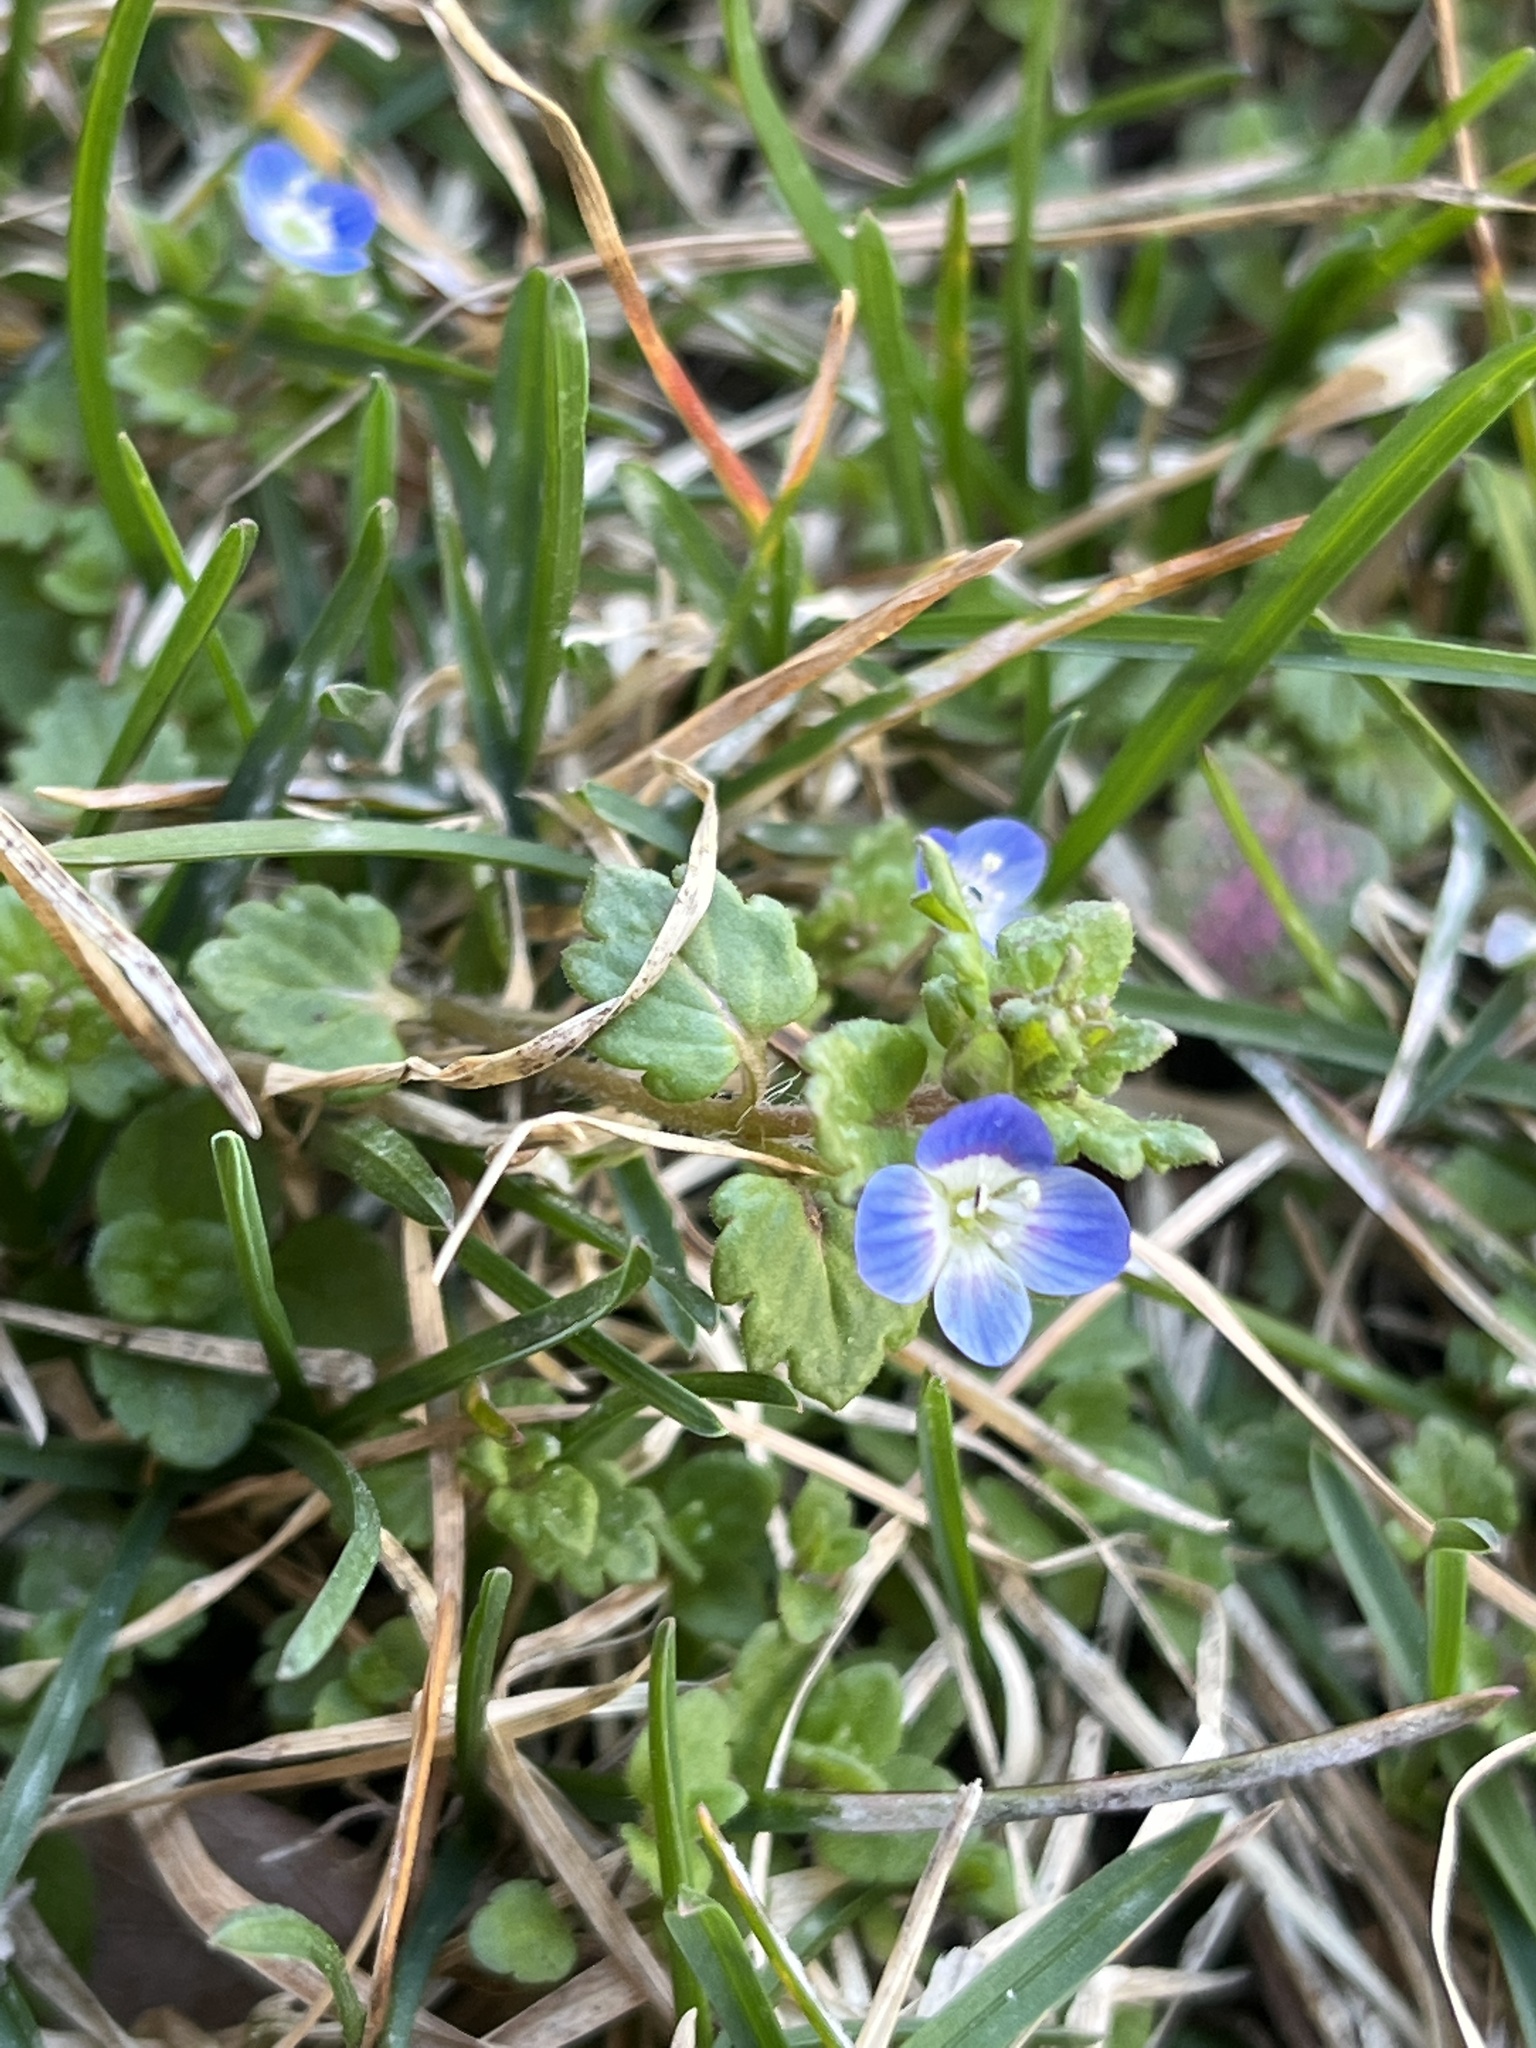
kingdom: Plantae
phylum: Tracheophyta
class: Magnoliopsida
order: Lamiales
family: Plantaginaceae
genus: Veronica
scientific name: Veronica polita
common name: Grey field-speedwell
